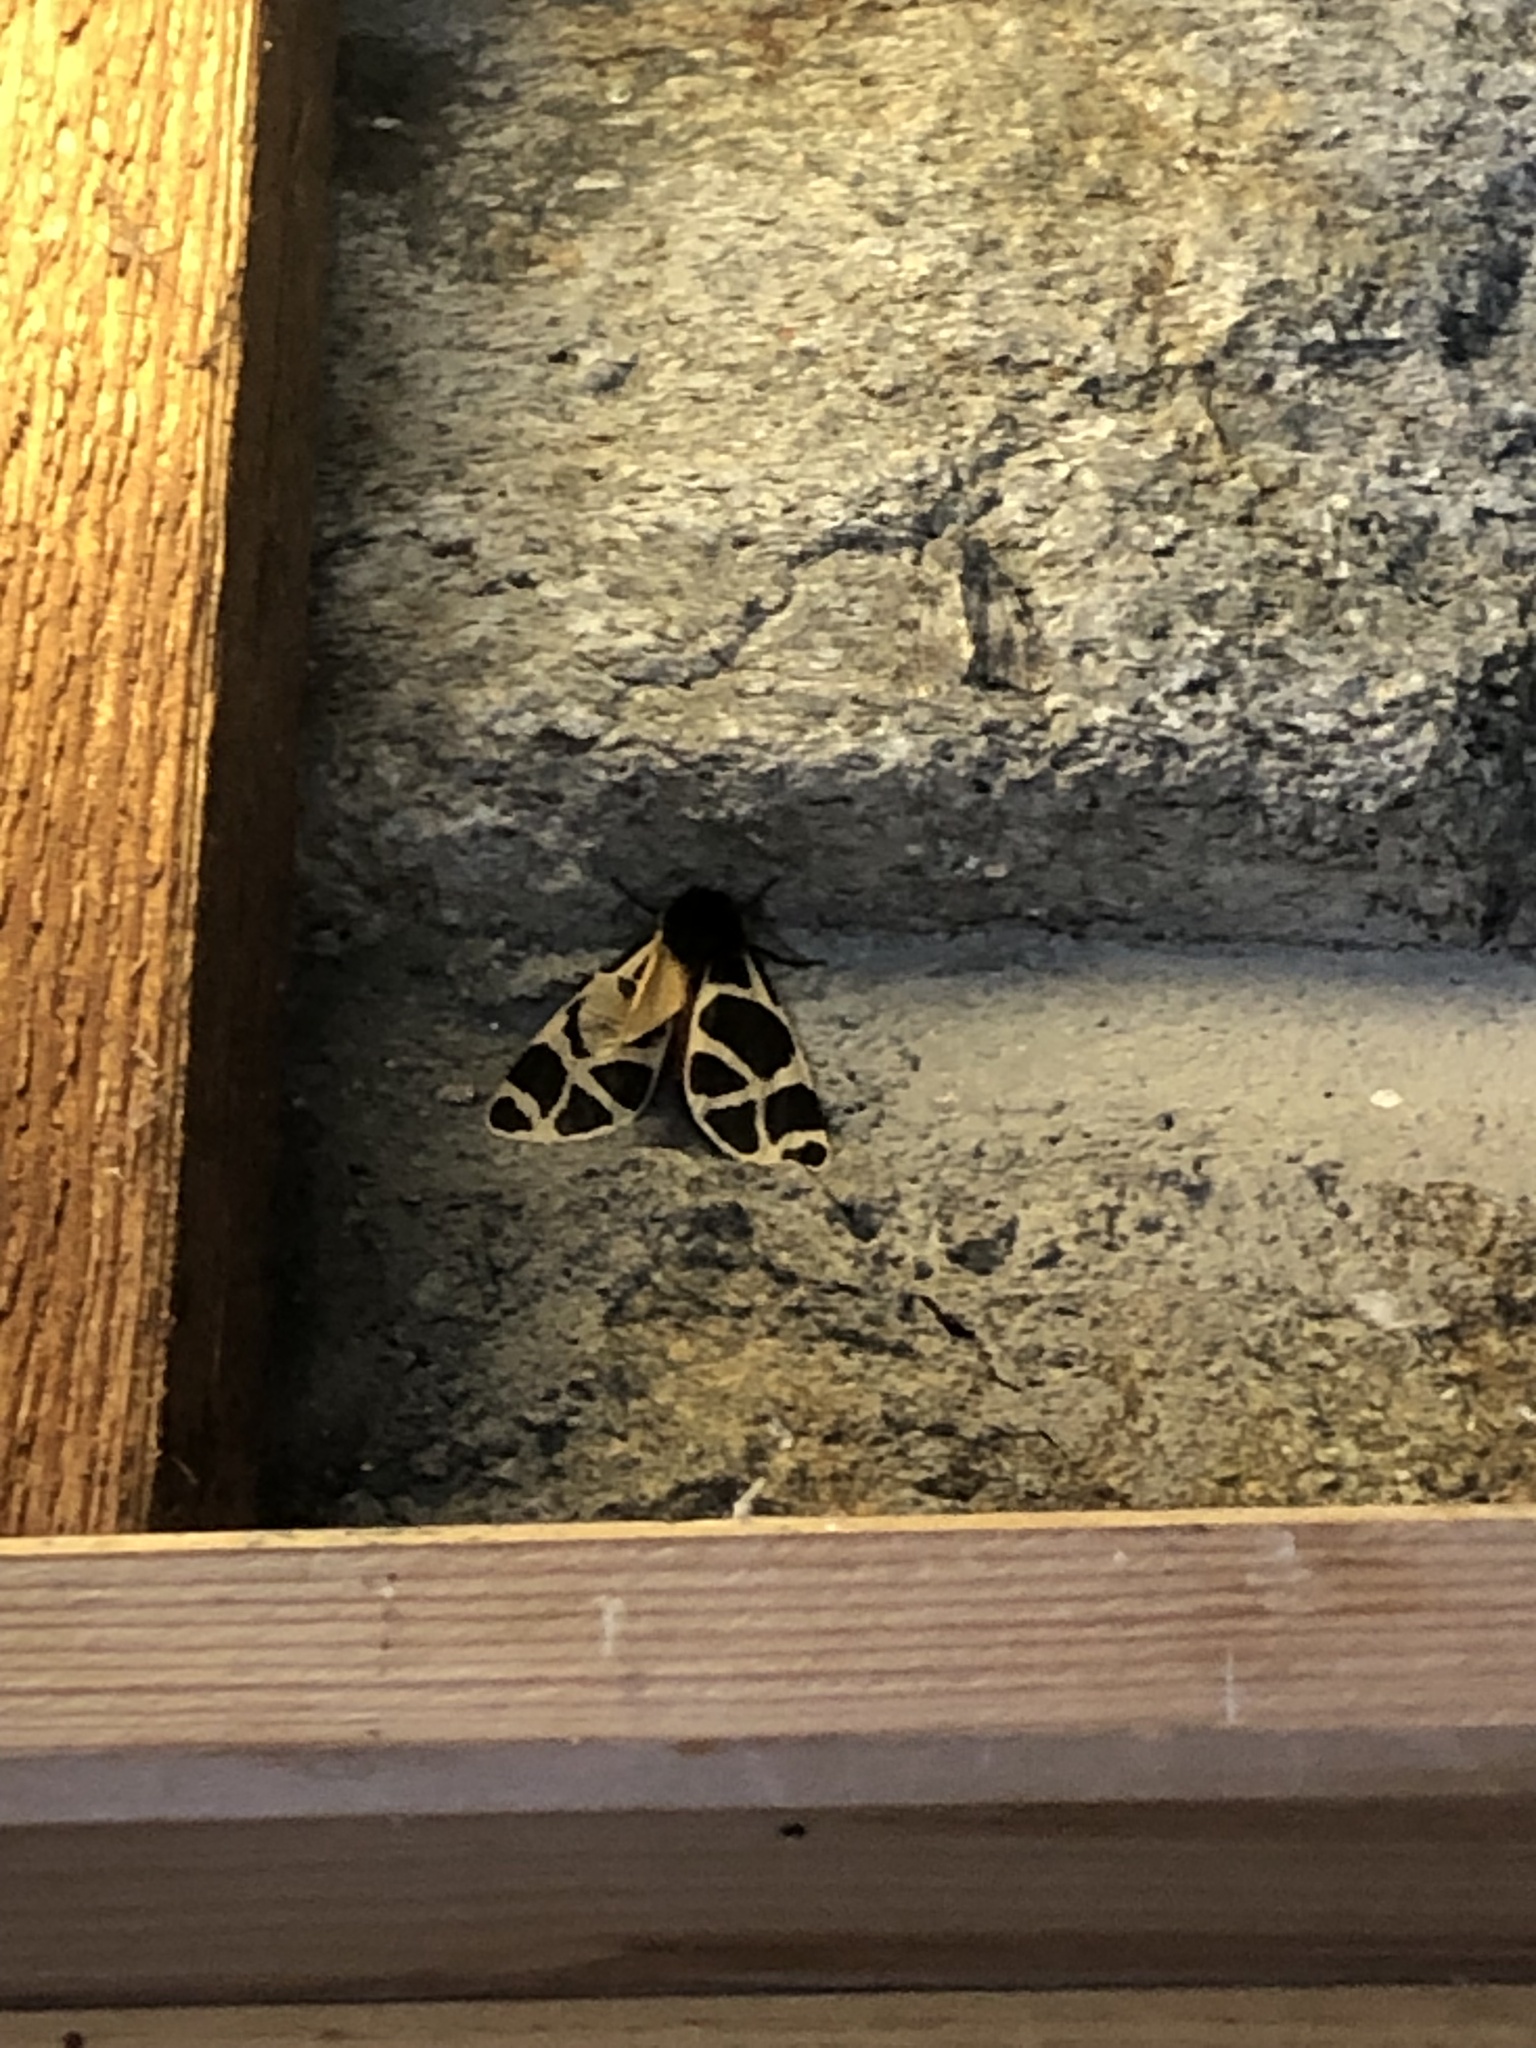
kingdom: Animalia
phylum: Arthropoda
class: Insecta
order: Lepidoptera
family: Erebidae
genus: Arctia
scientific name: Arctia flavia
